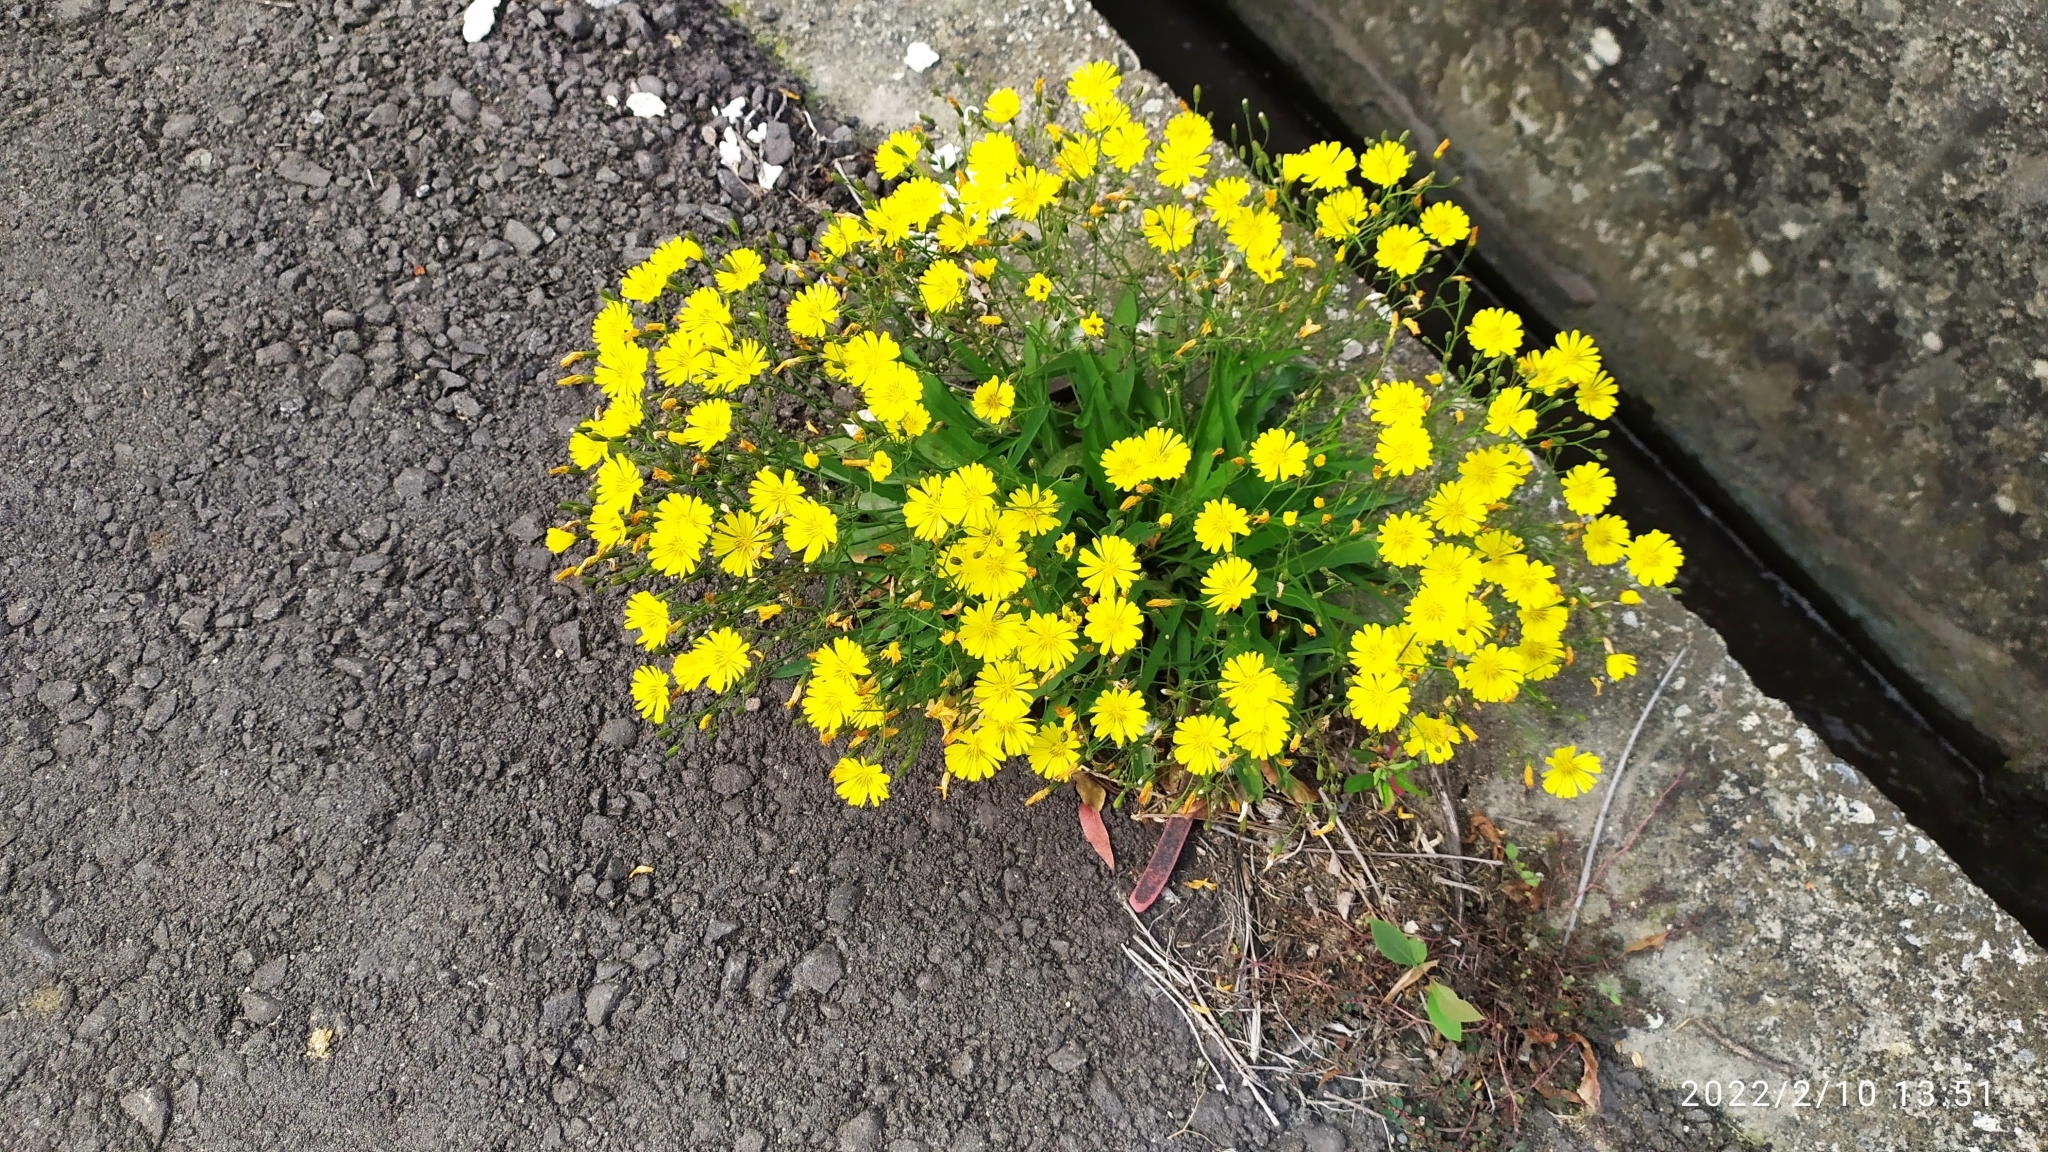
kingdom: Plantae
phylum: Tracheophyta
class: Magnoliopsida
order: Asterales
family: Asteraceae
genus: Ixeris
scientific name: Ixeris chinensis
